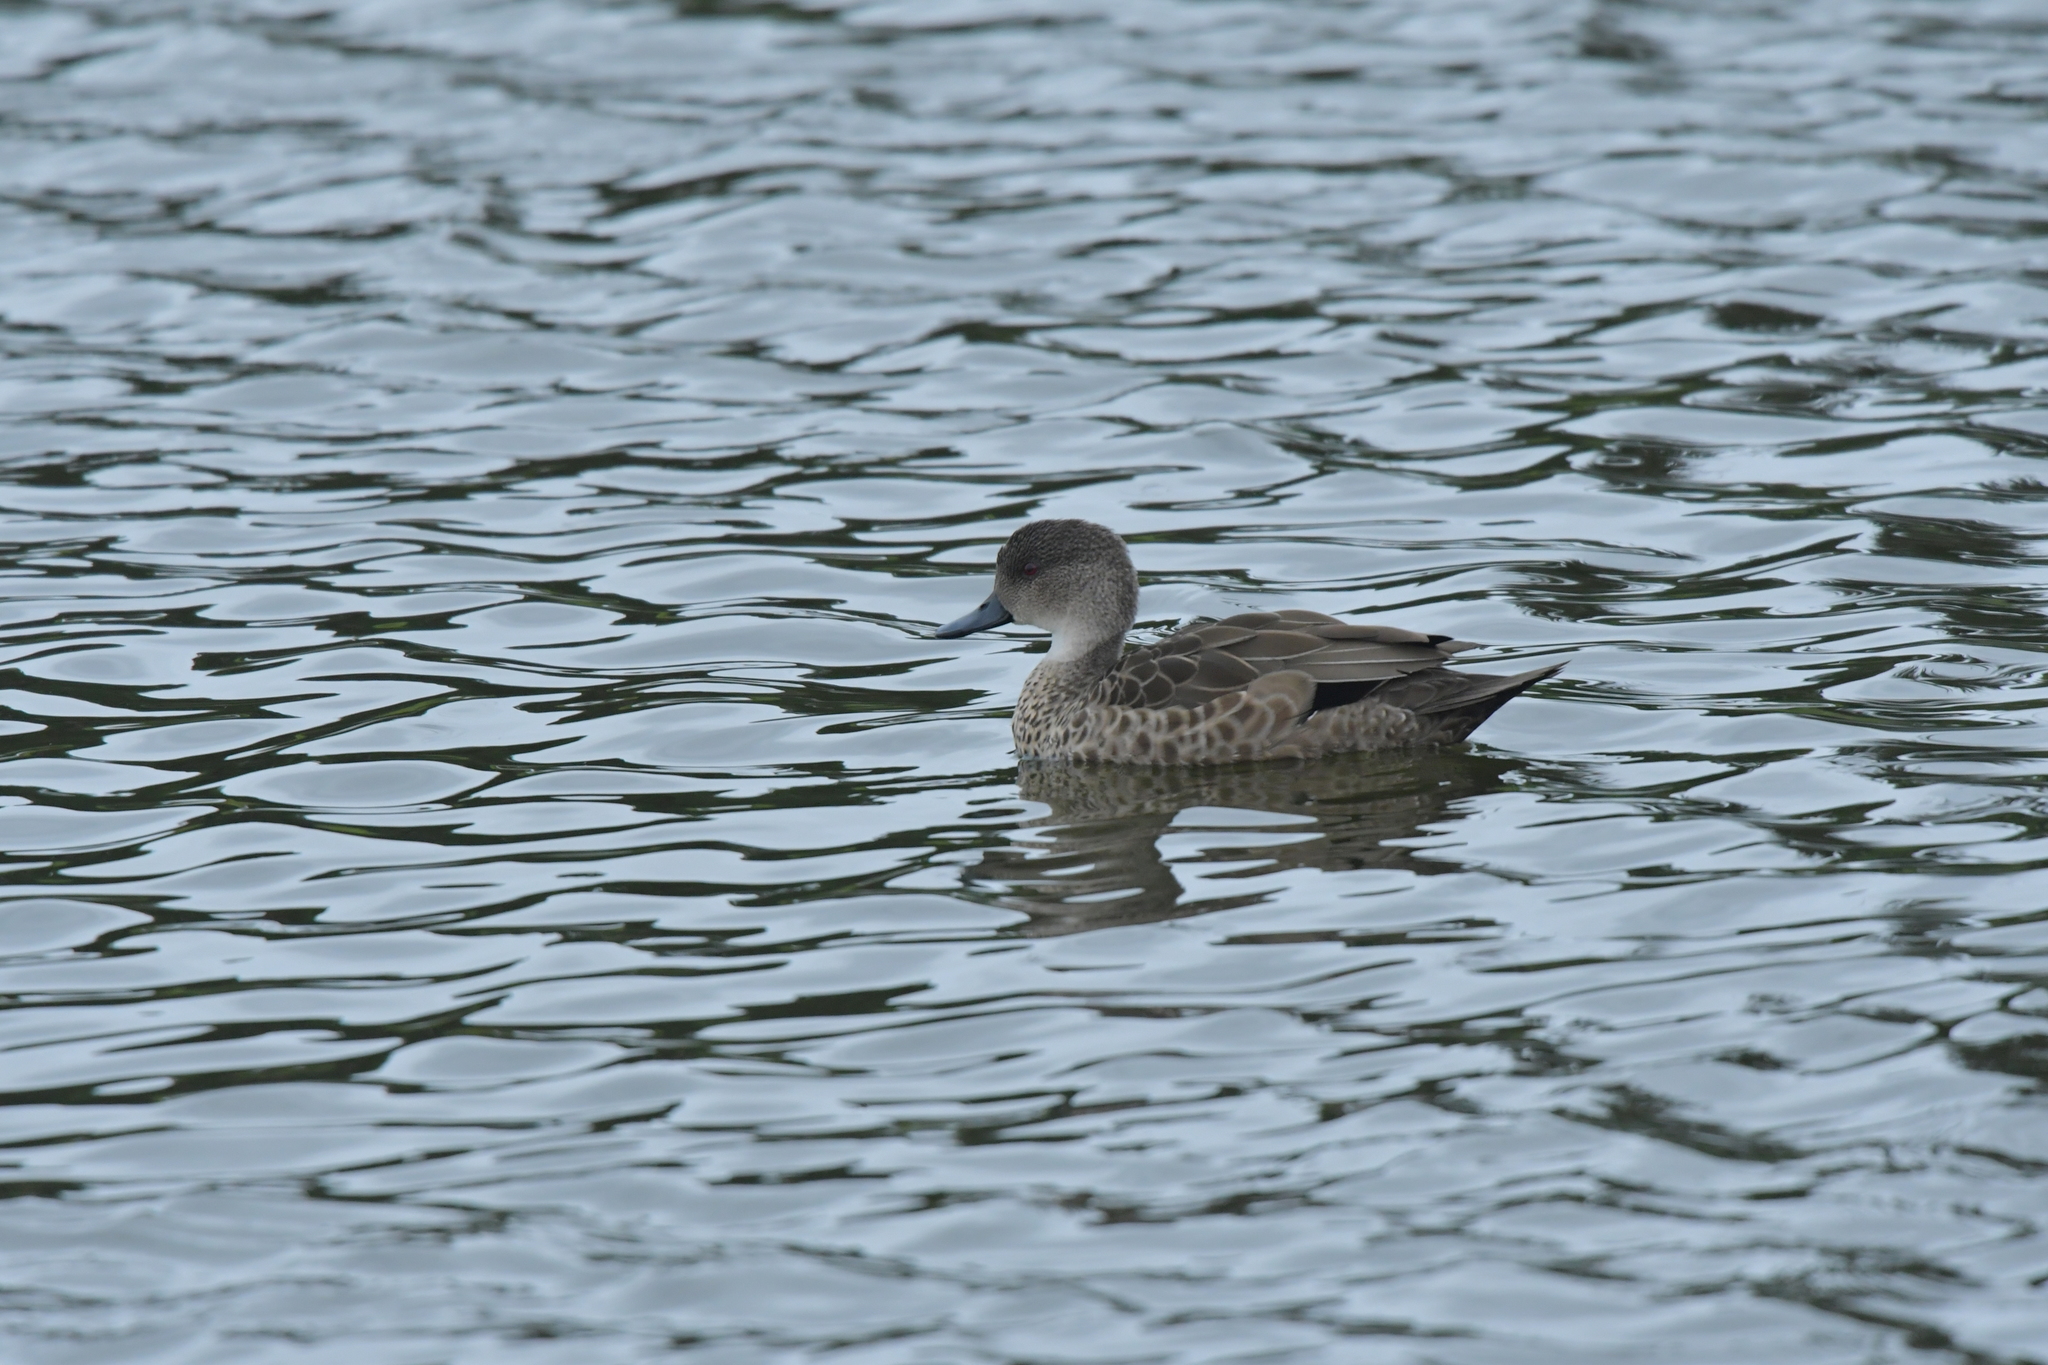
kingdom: Animalia
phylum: Chordata
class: Aves
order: Anseriformes
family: Anatidae
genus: Anas
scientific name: Anas gracilis
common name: Grey teal
